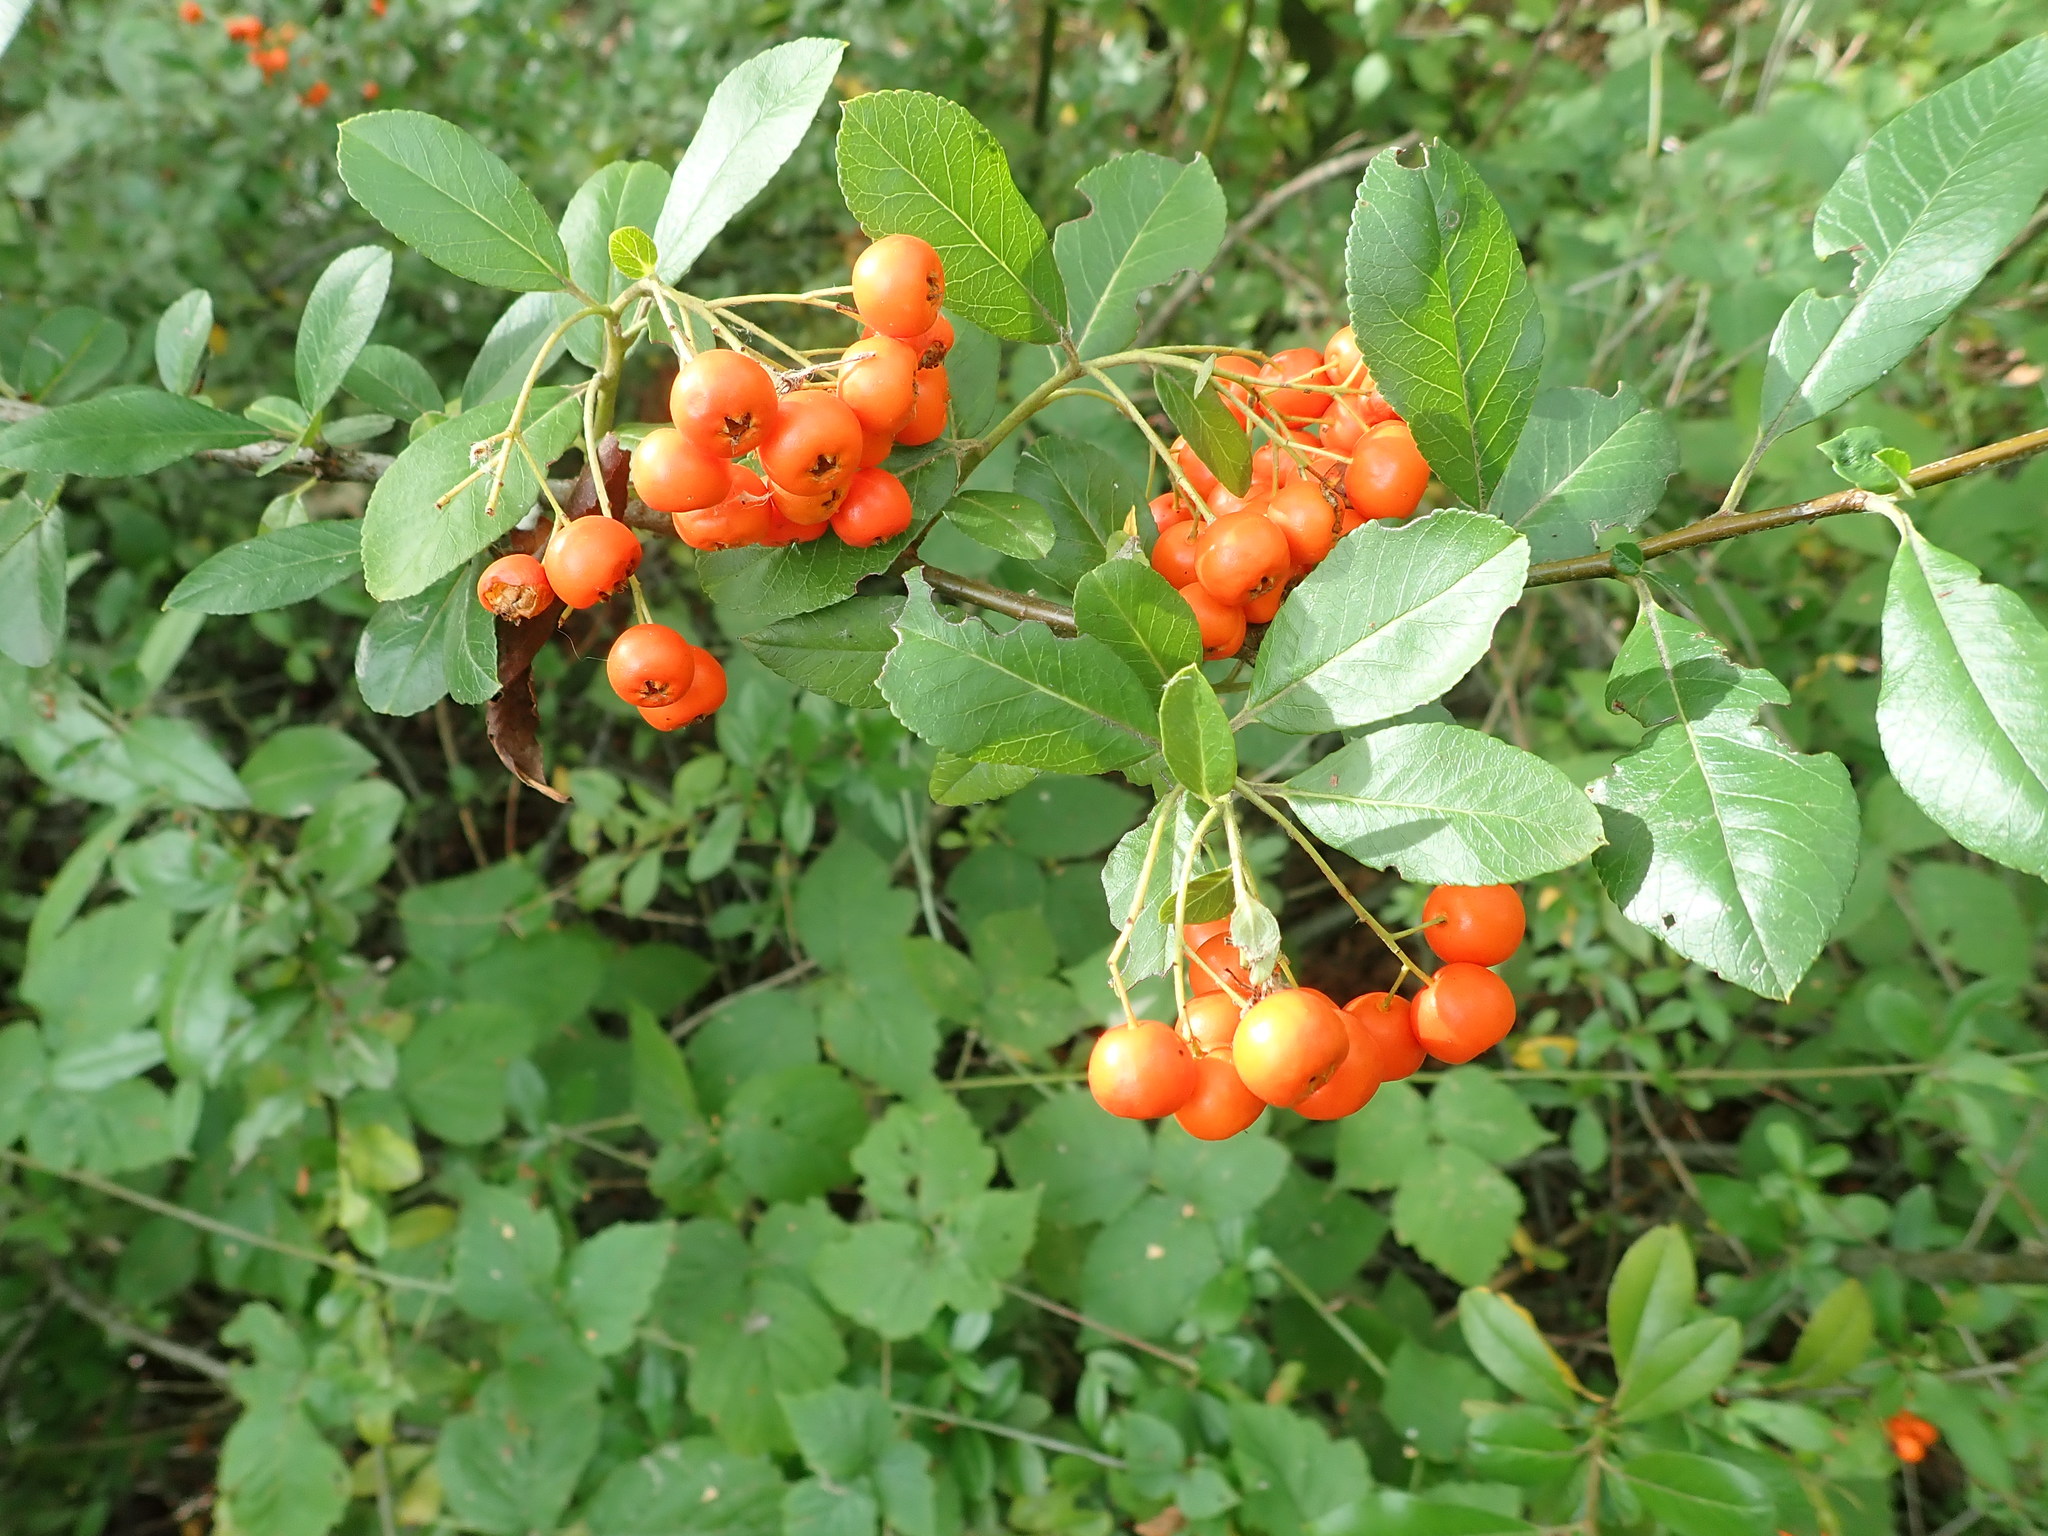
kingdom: Plantae
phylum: Tracheophyta
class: Magnoliopsida
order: Rosales
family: Rosaceae
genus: Pyracantha
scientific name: Pyracantha coccinea
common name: Firethorn
